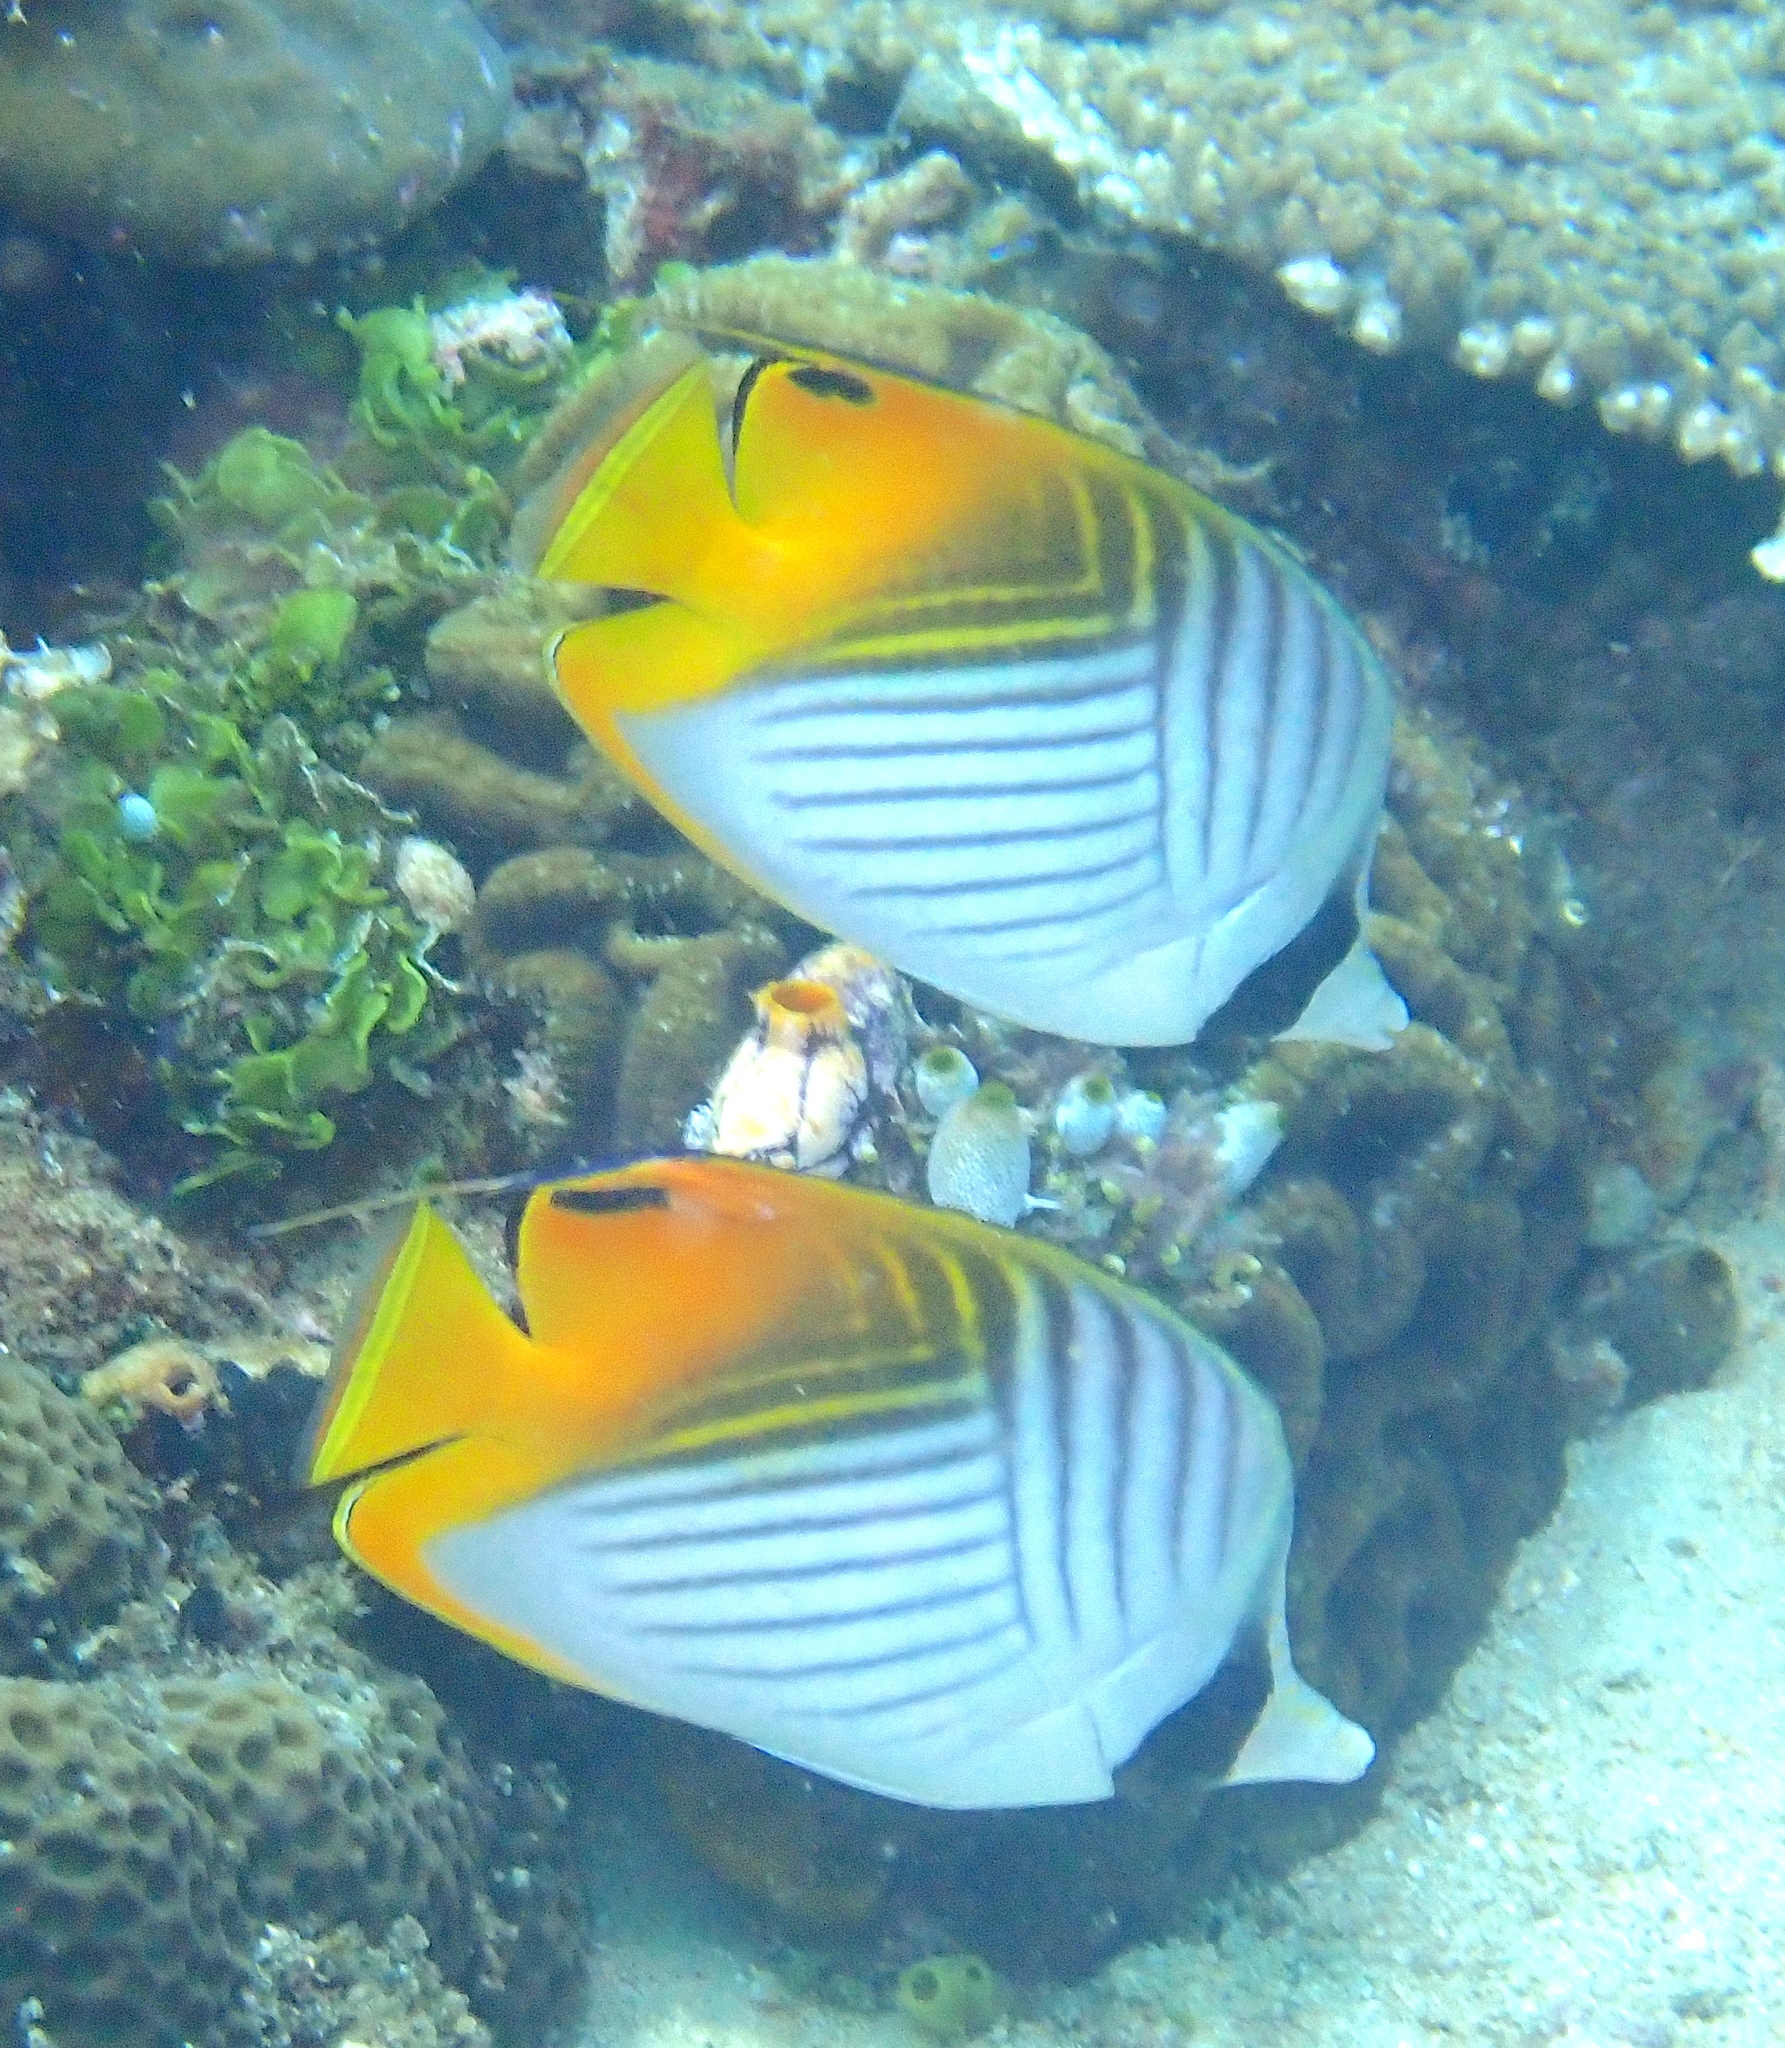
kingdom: Animalia
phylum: Chordata
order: Perciformes
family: Chaetodontidae
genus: Chaetodon
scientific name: Chaetodon auriga
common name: Threadfin butterflyfish
